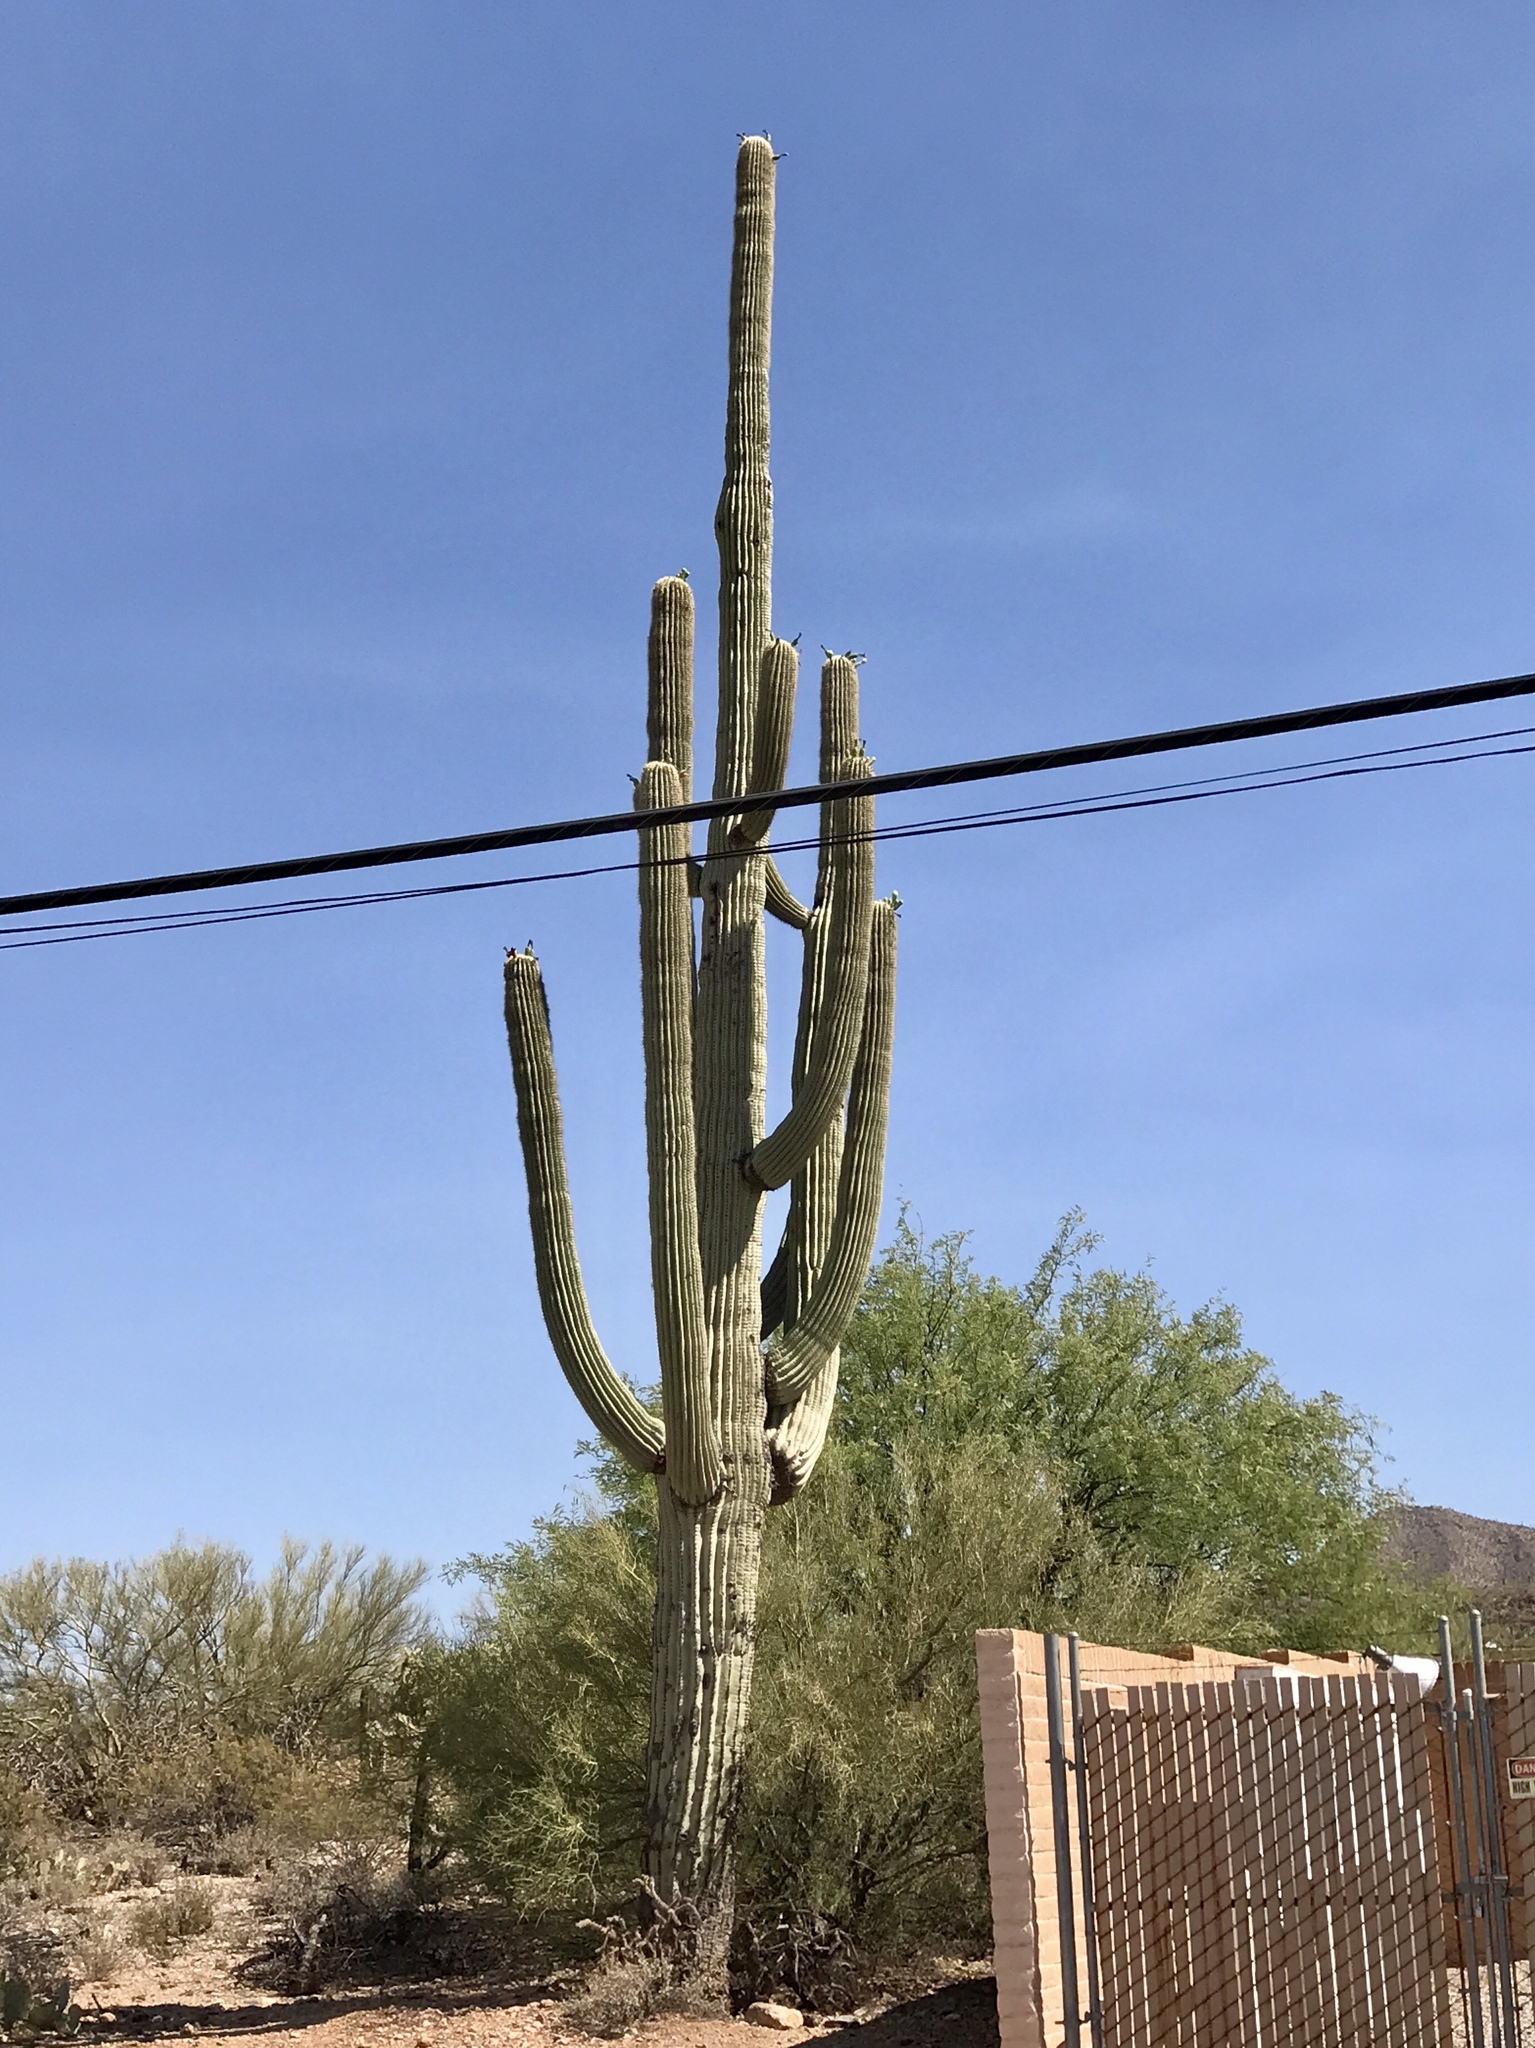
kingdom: Plantae
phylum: Tracheophyta
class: Magnoliopsida
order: Caryophyllales
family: Cactaceae
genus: Carnegiea
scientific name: Carnegiea gigantea
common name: Saguaro
